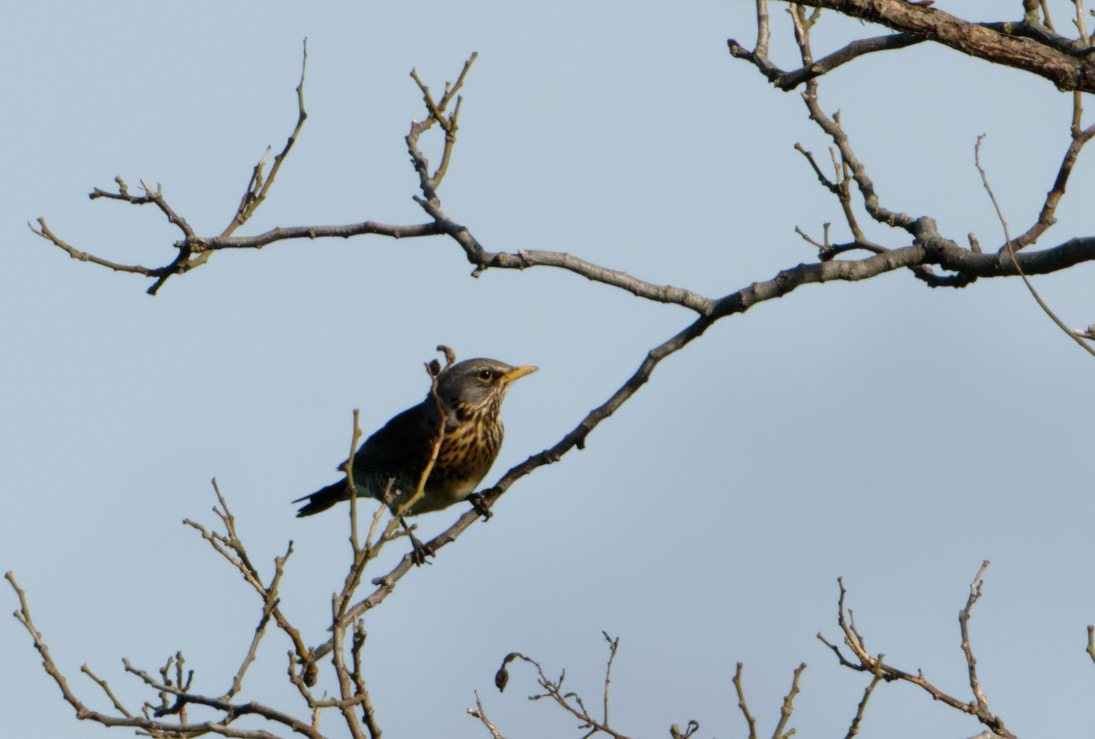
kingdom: Animalia
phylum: Chordata
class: Aves
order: Passeriformes
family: Turdidae
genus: Turdus
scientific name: Turdus pilaris
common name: Fieldfare
